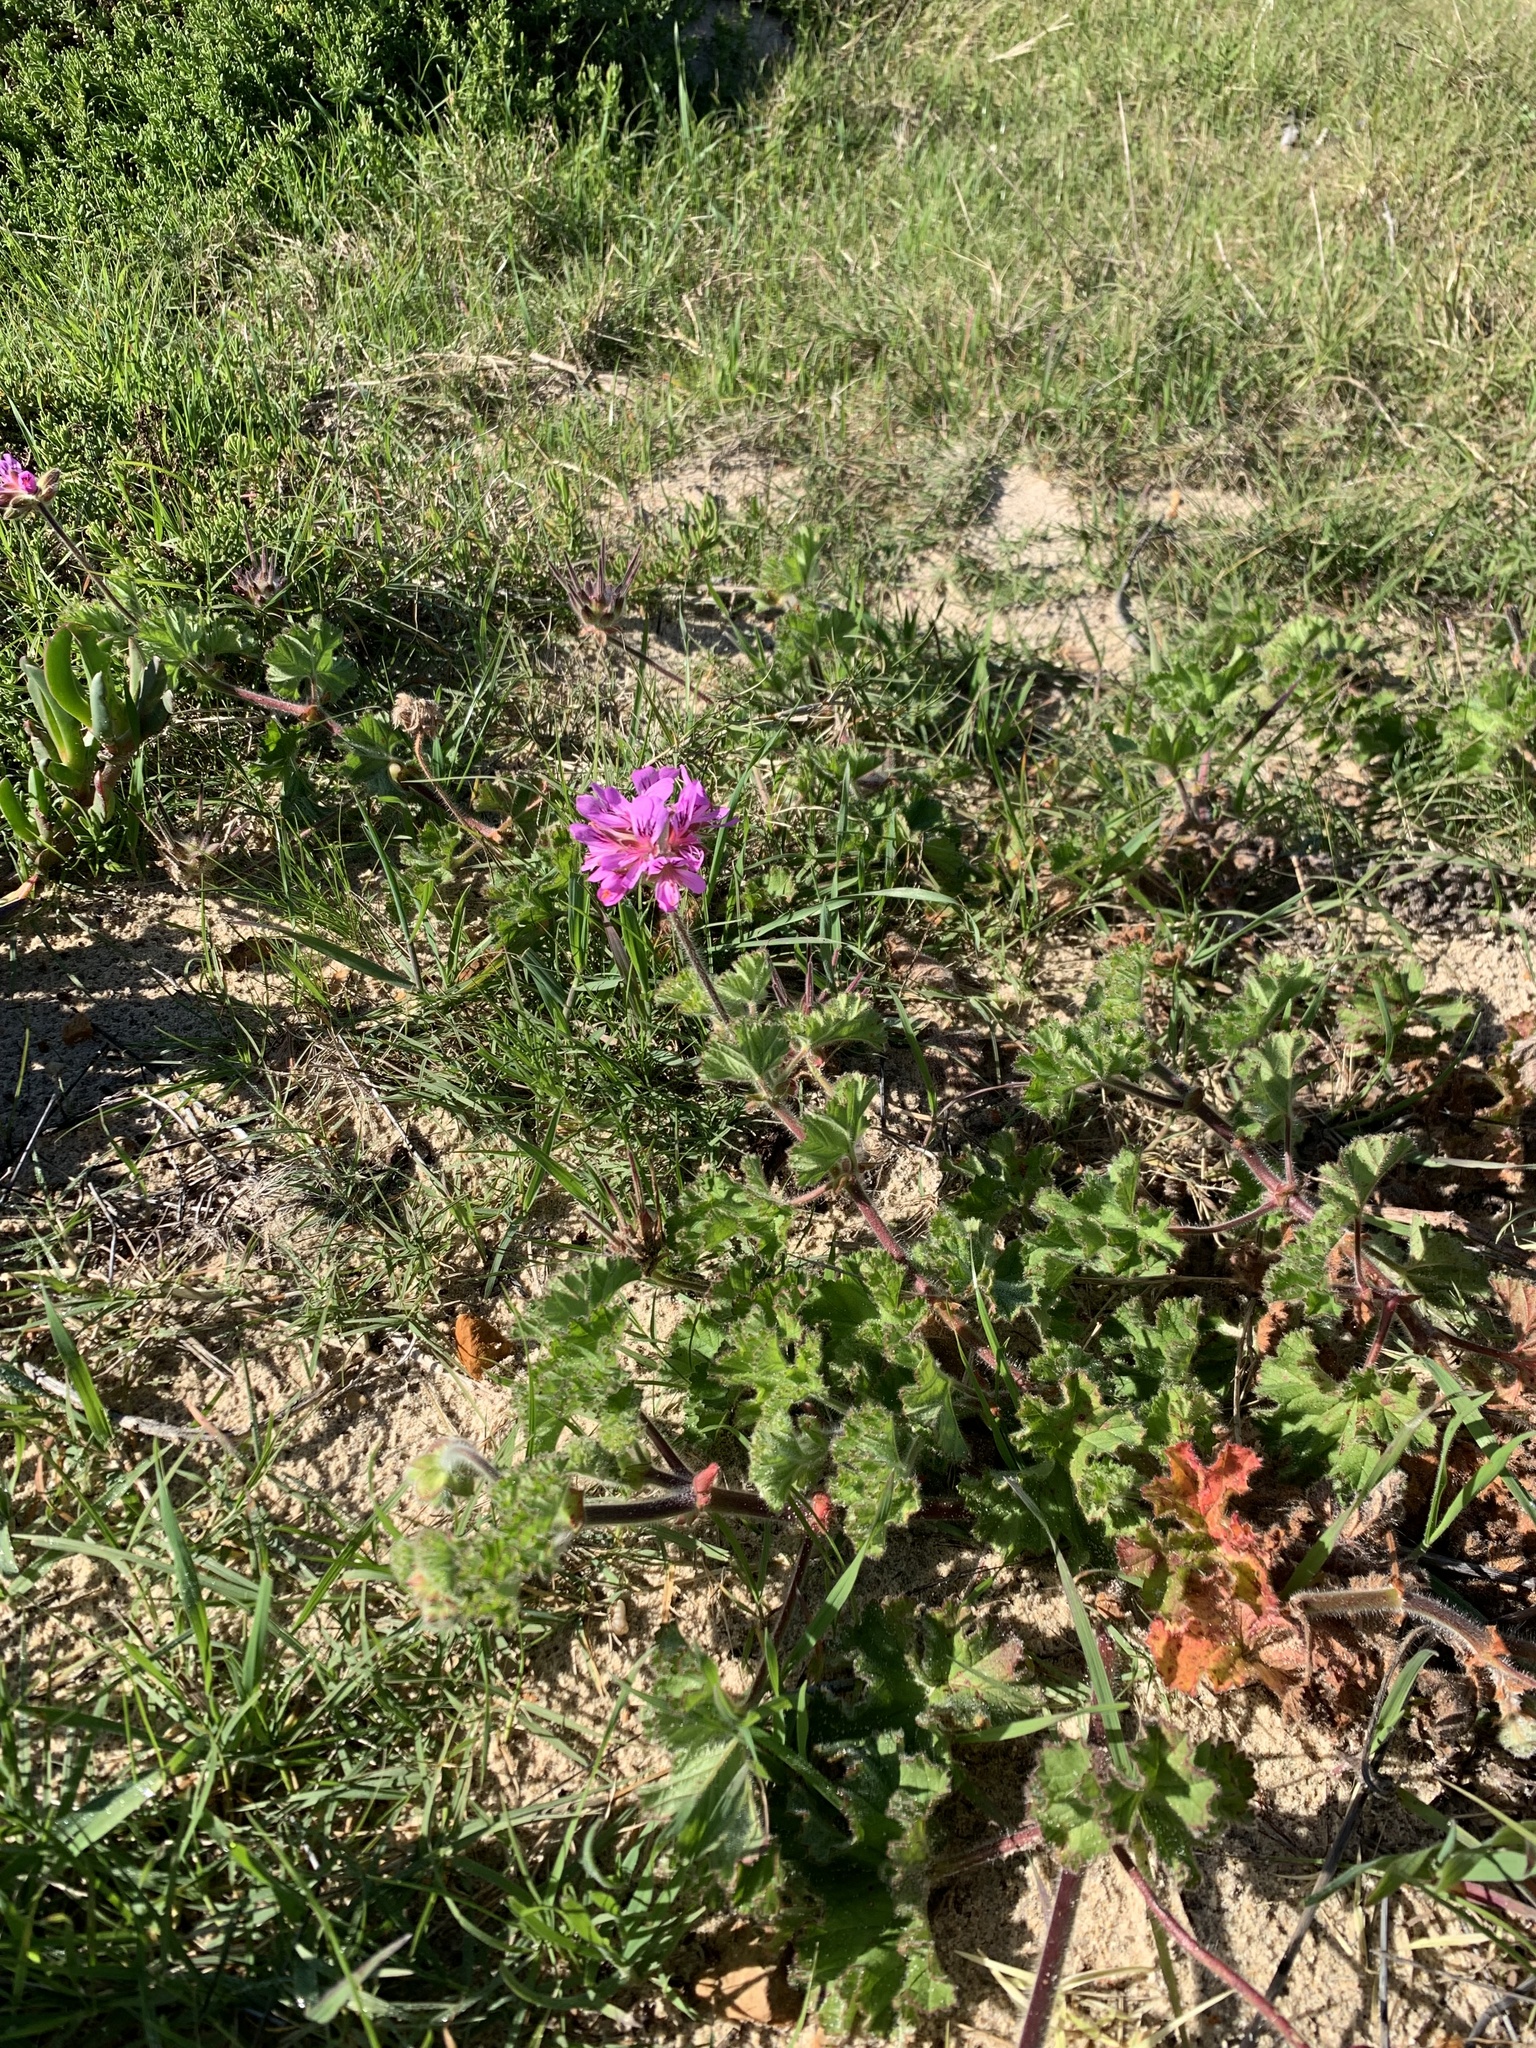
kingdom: Plantae
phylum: Tracheophyta
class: Magnoliopsida
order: Geraniales
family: Geraniaceae
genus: Pelargonium
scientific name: Pelargonium capitatum
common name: Rose scented geranium
